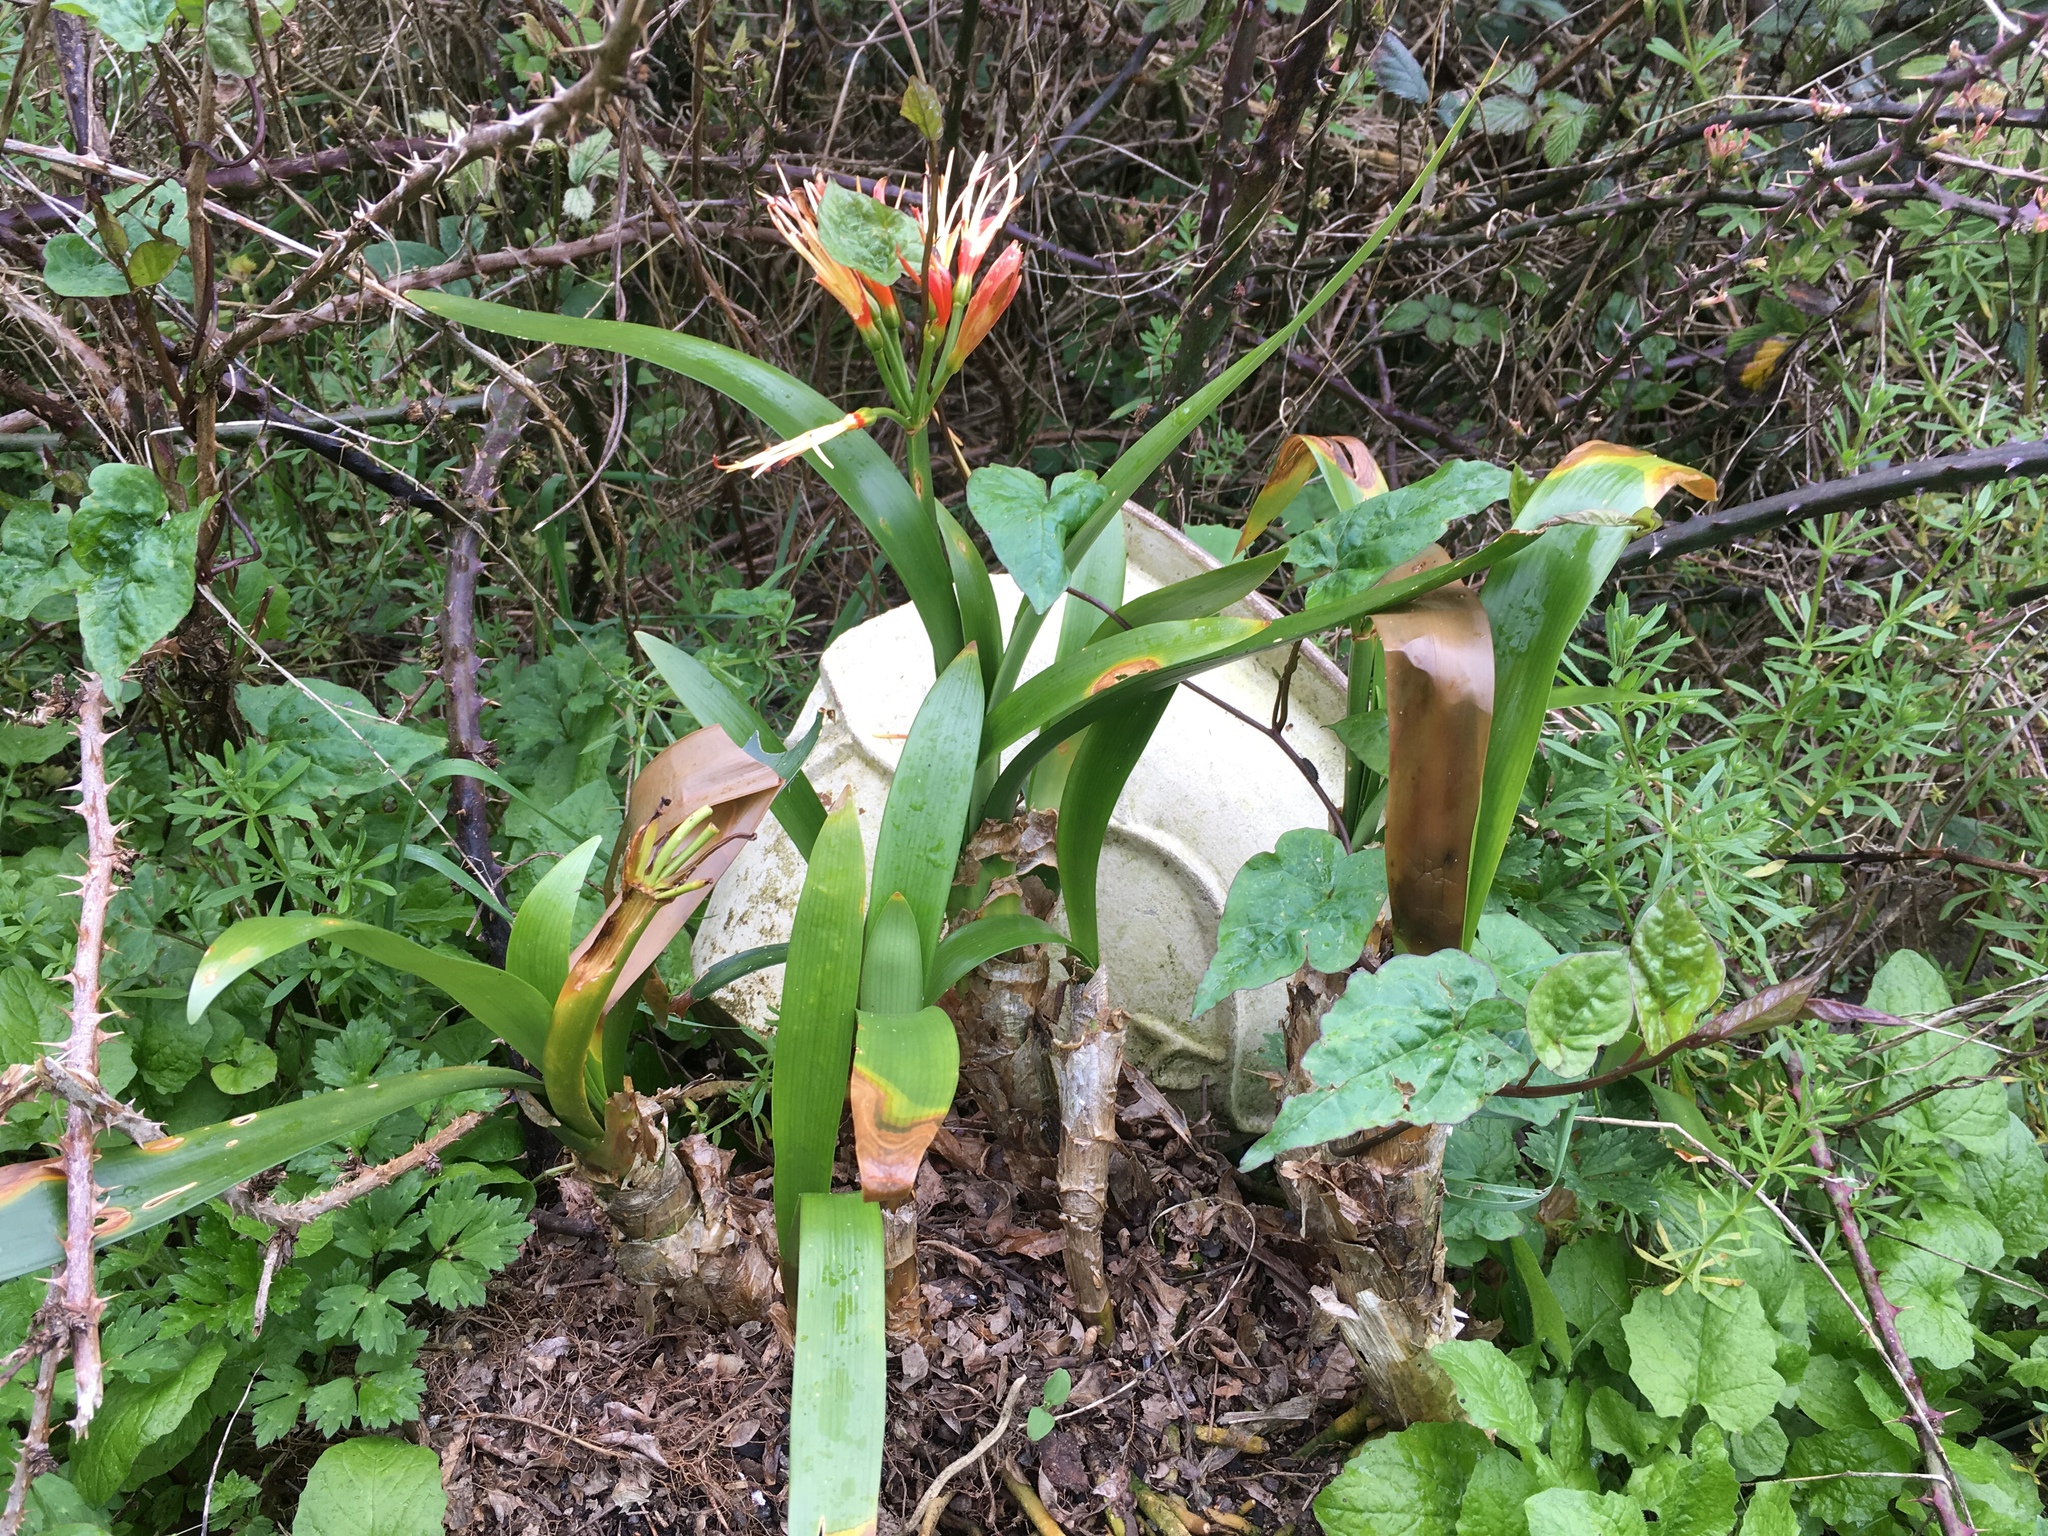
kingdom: Plantae
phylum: Tracheophyta
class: Liliopsida
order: Asparagales
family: Amaryllidaceae
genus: Clivia
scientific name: Clivia miniata
